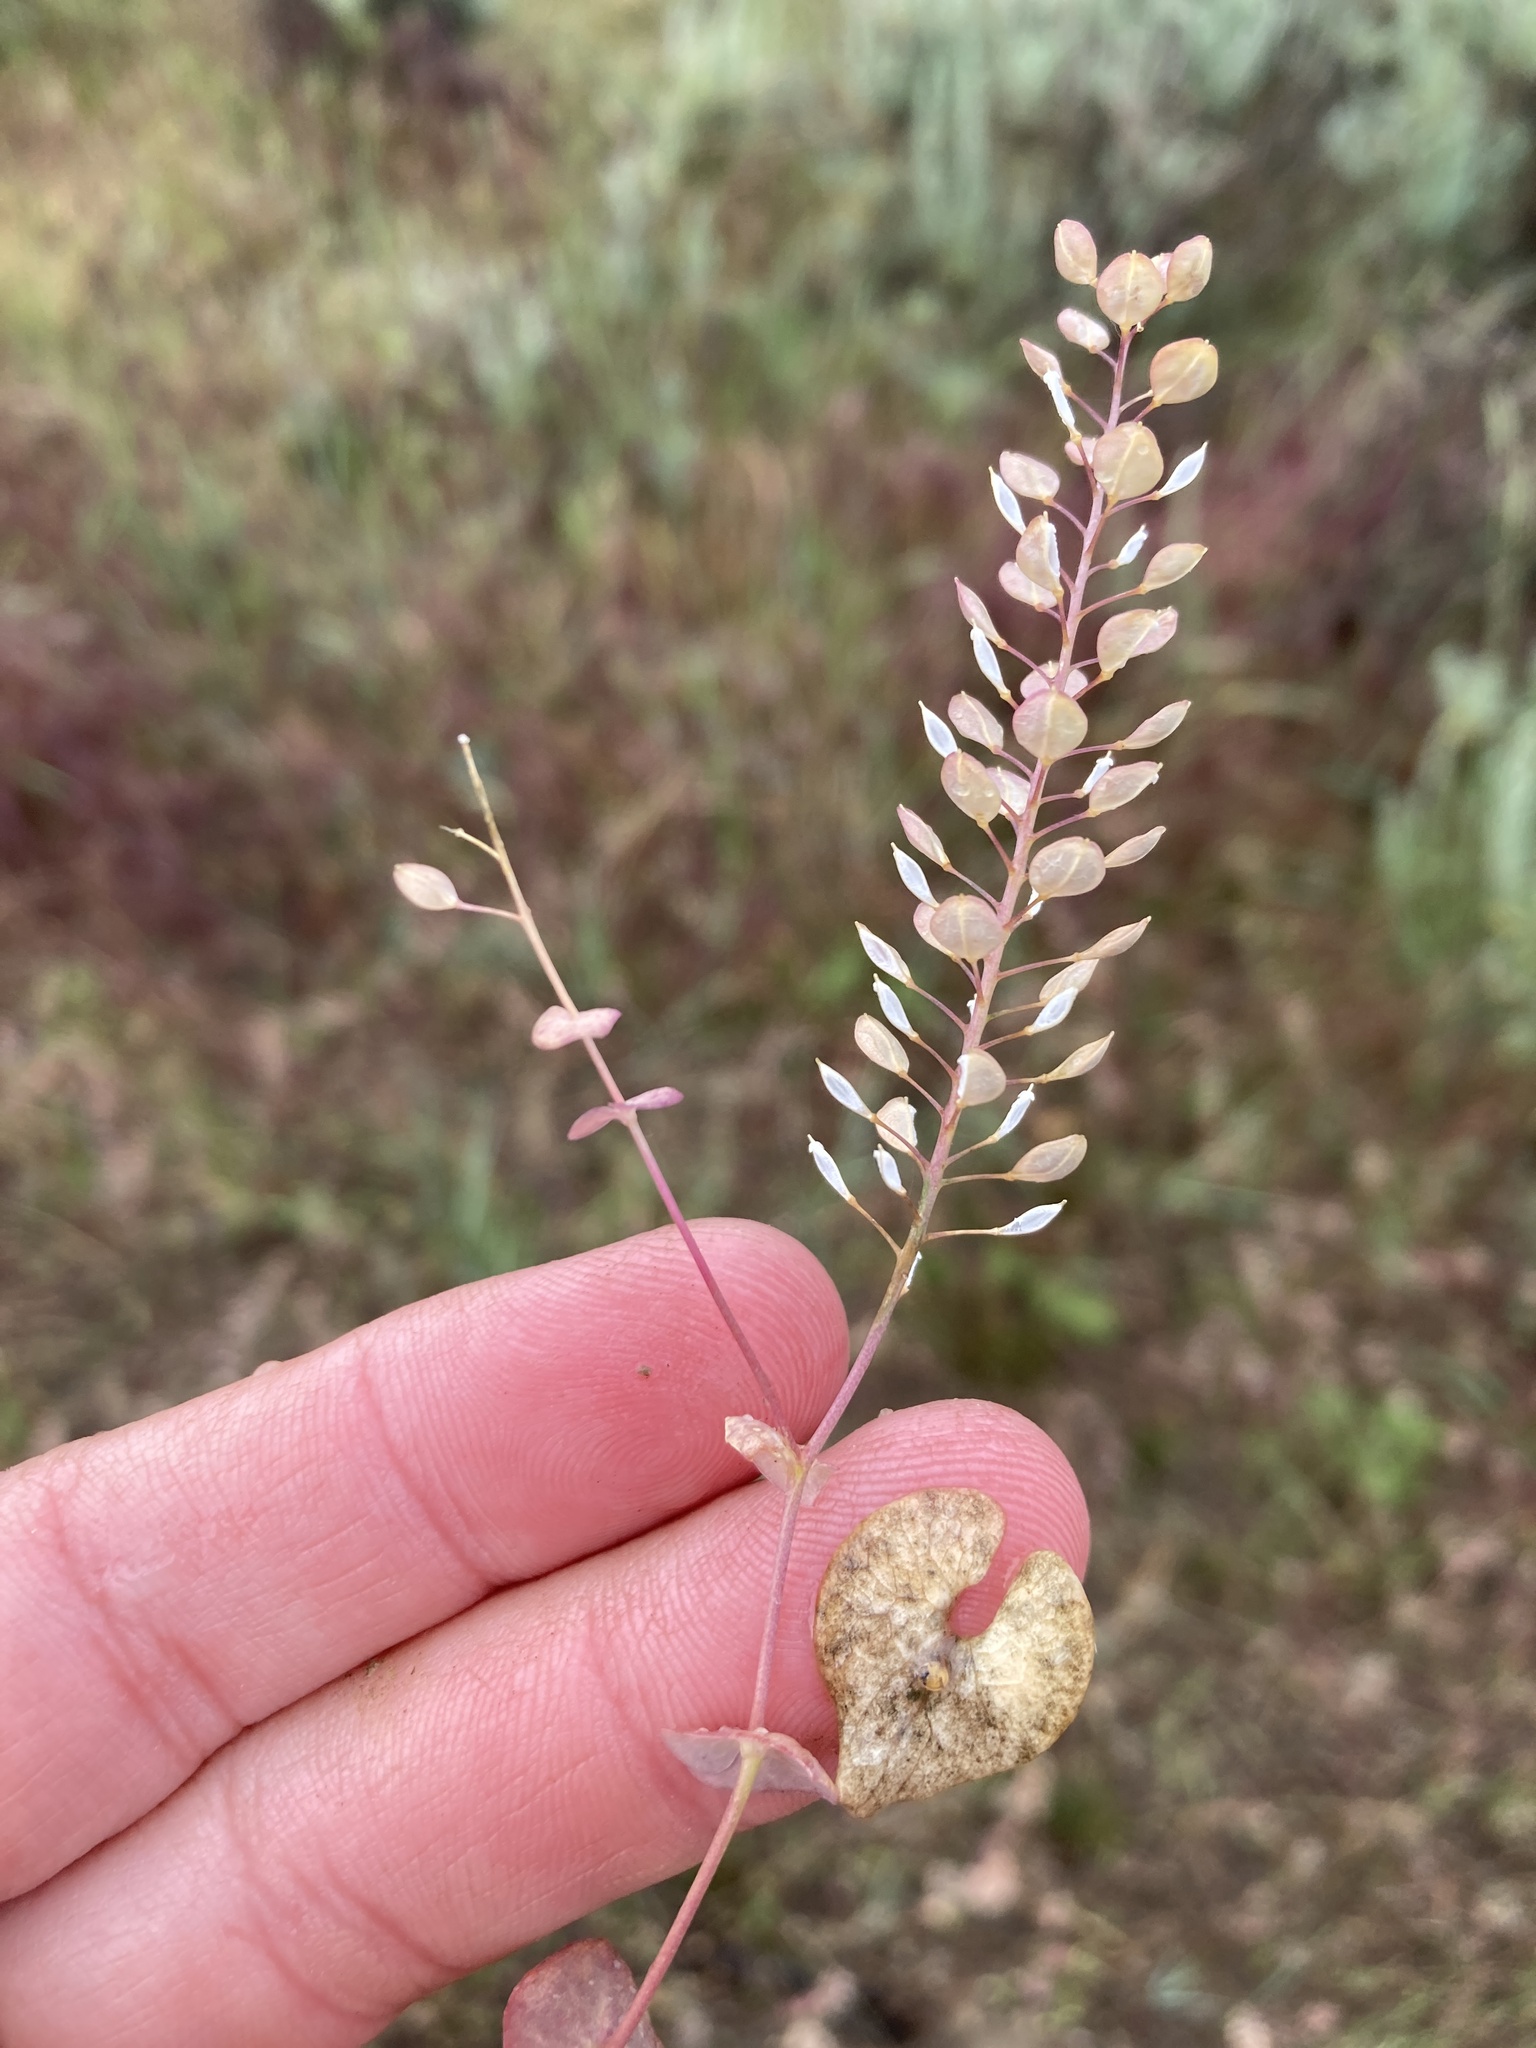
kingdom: Plantae
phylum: Tracheophyta
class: Magnoliopsida
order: Brassicales
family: Brassicaceae
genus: Lepidium
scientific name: Lepidium perfoliatum
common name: Perfoliate pepperwort
